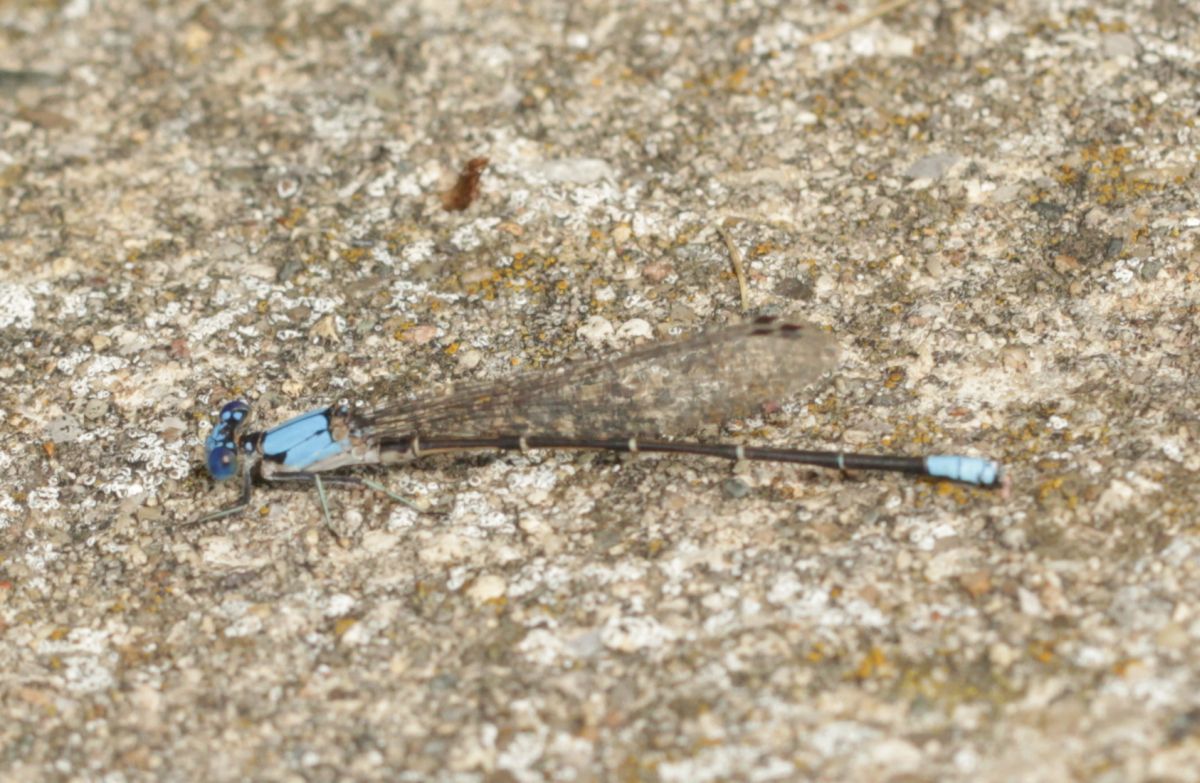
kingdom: Animalia
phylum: Arthropoda
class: Insecta
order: Odonata
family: Coenagrionidae
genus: Argia
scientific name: Argia apicalis
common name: Blue-fronted dancer
